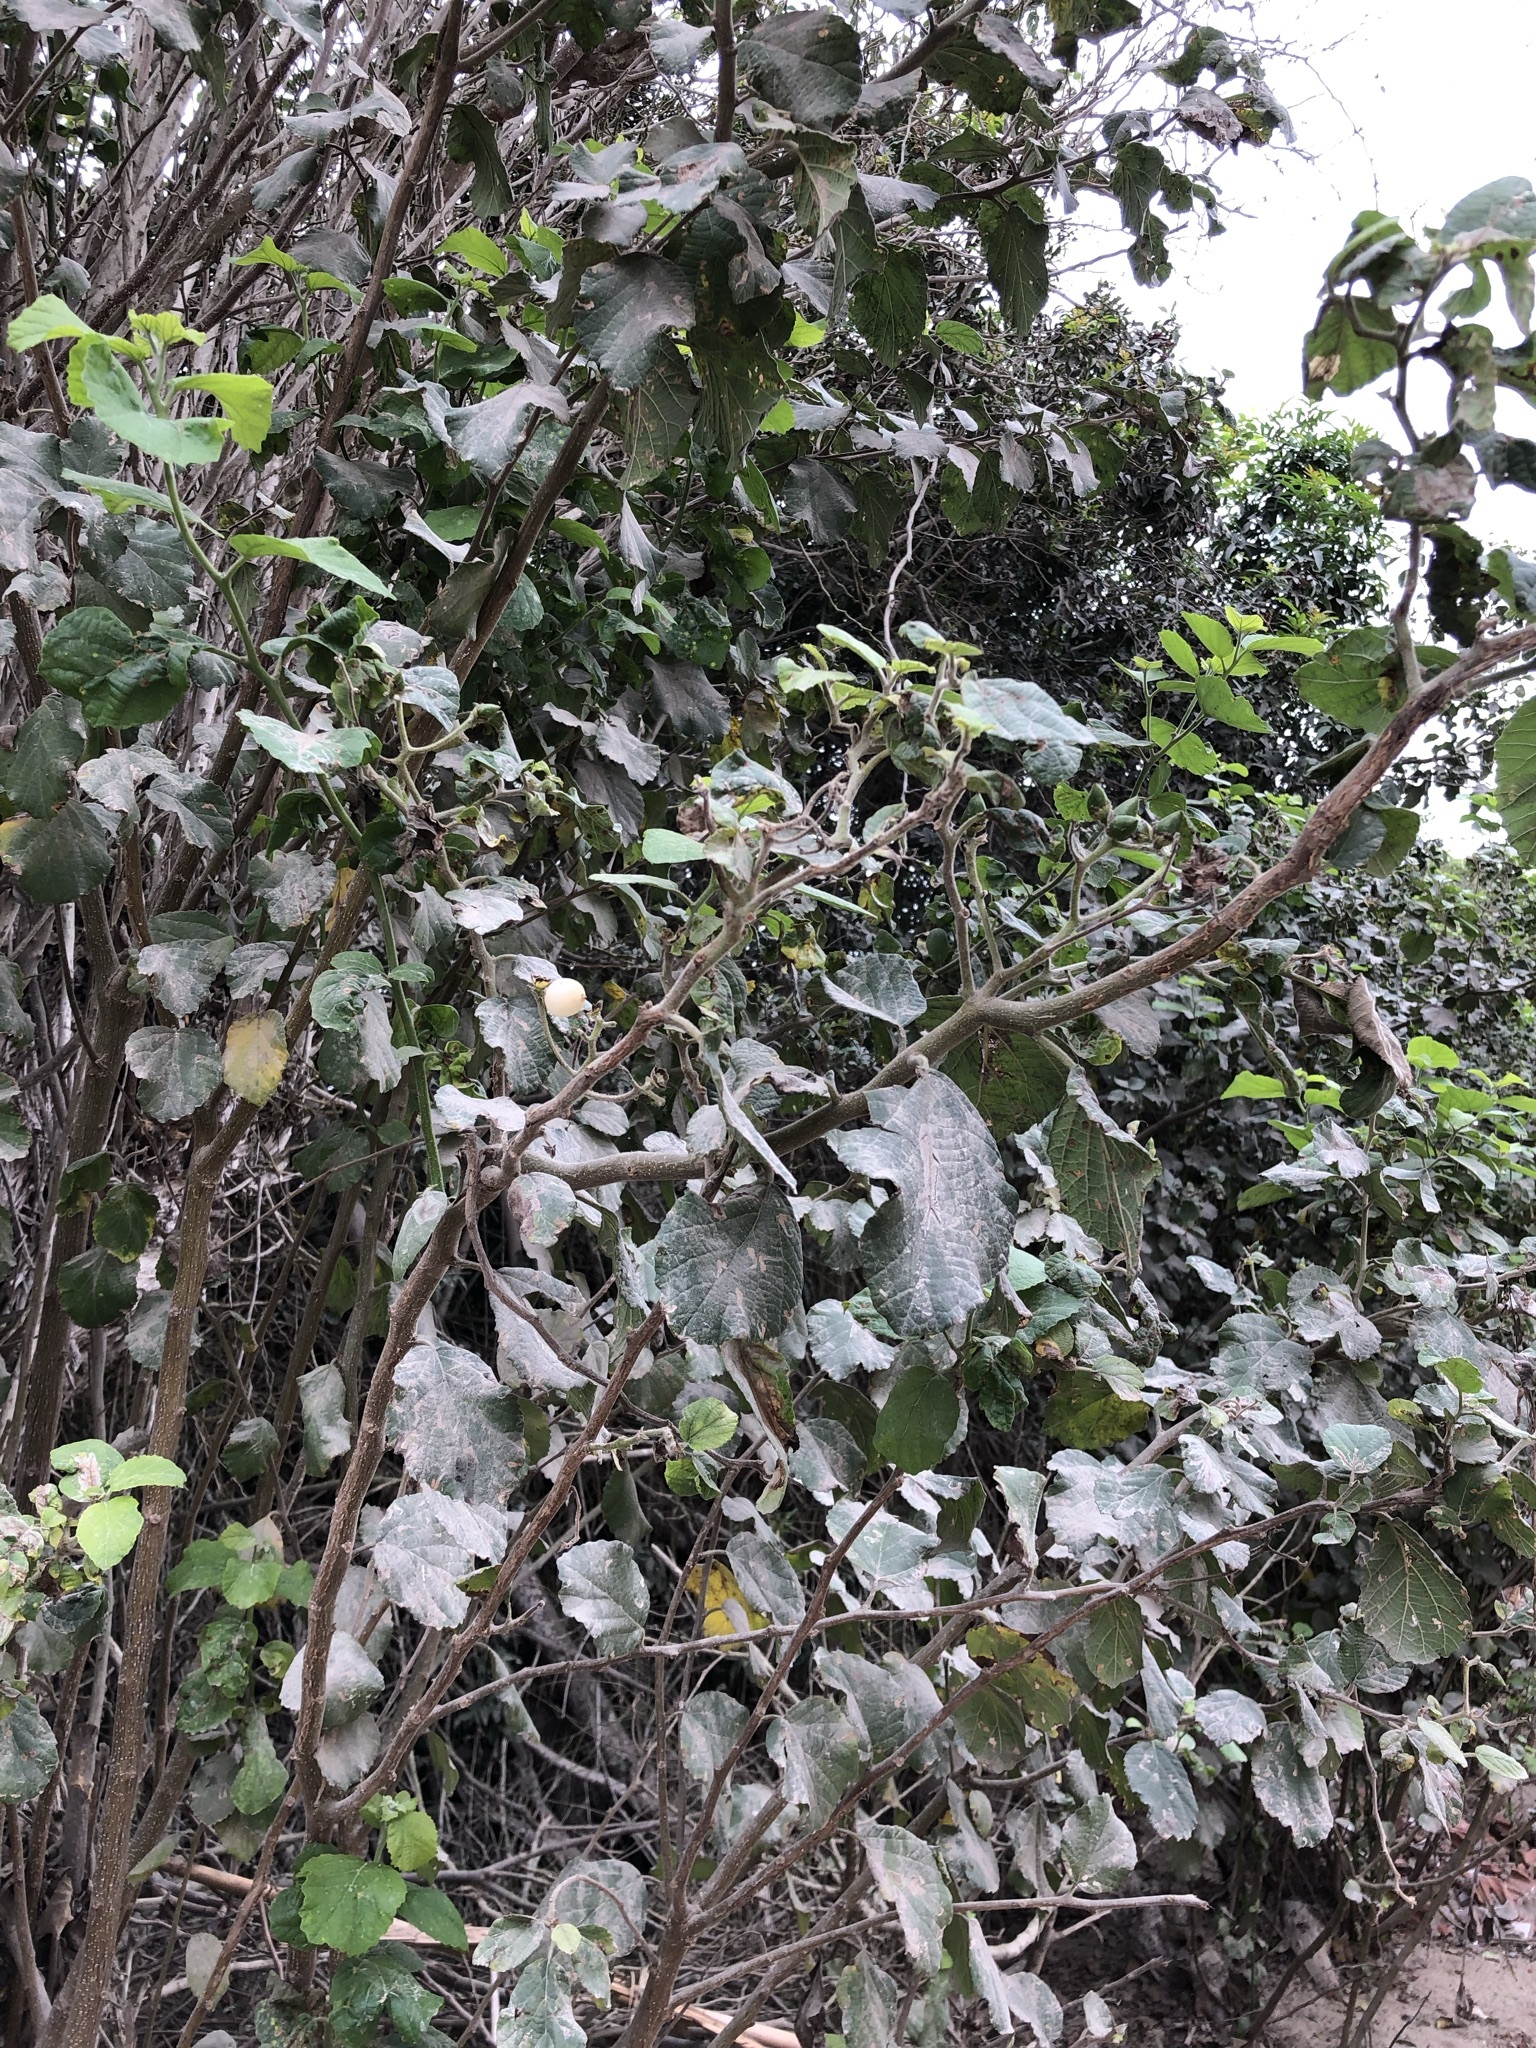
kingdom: Plantae
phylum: Tracheophyta
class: Magnoliopsida
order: Solanales
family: Solanaceae
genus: Iochroma
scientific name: Iochroma arborescens
